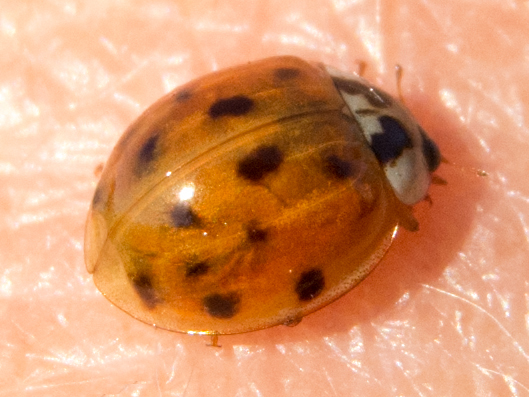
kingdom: Animalia
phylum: Arthropoda
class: Insecta
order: Coleoptera
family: Coccinellidae
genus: Harmonia
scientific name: Harmonia axyridis
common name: Harlequin ladybird
